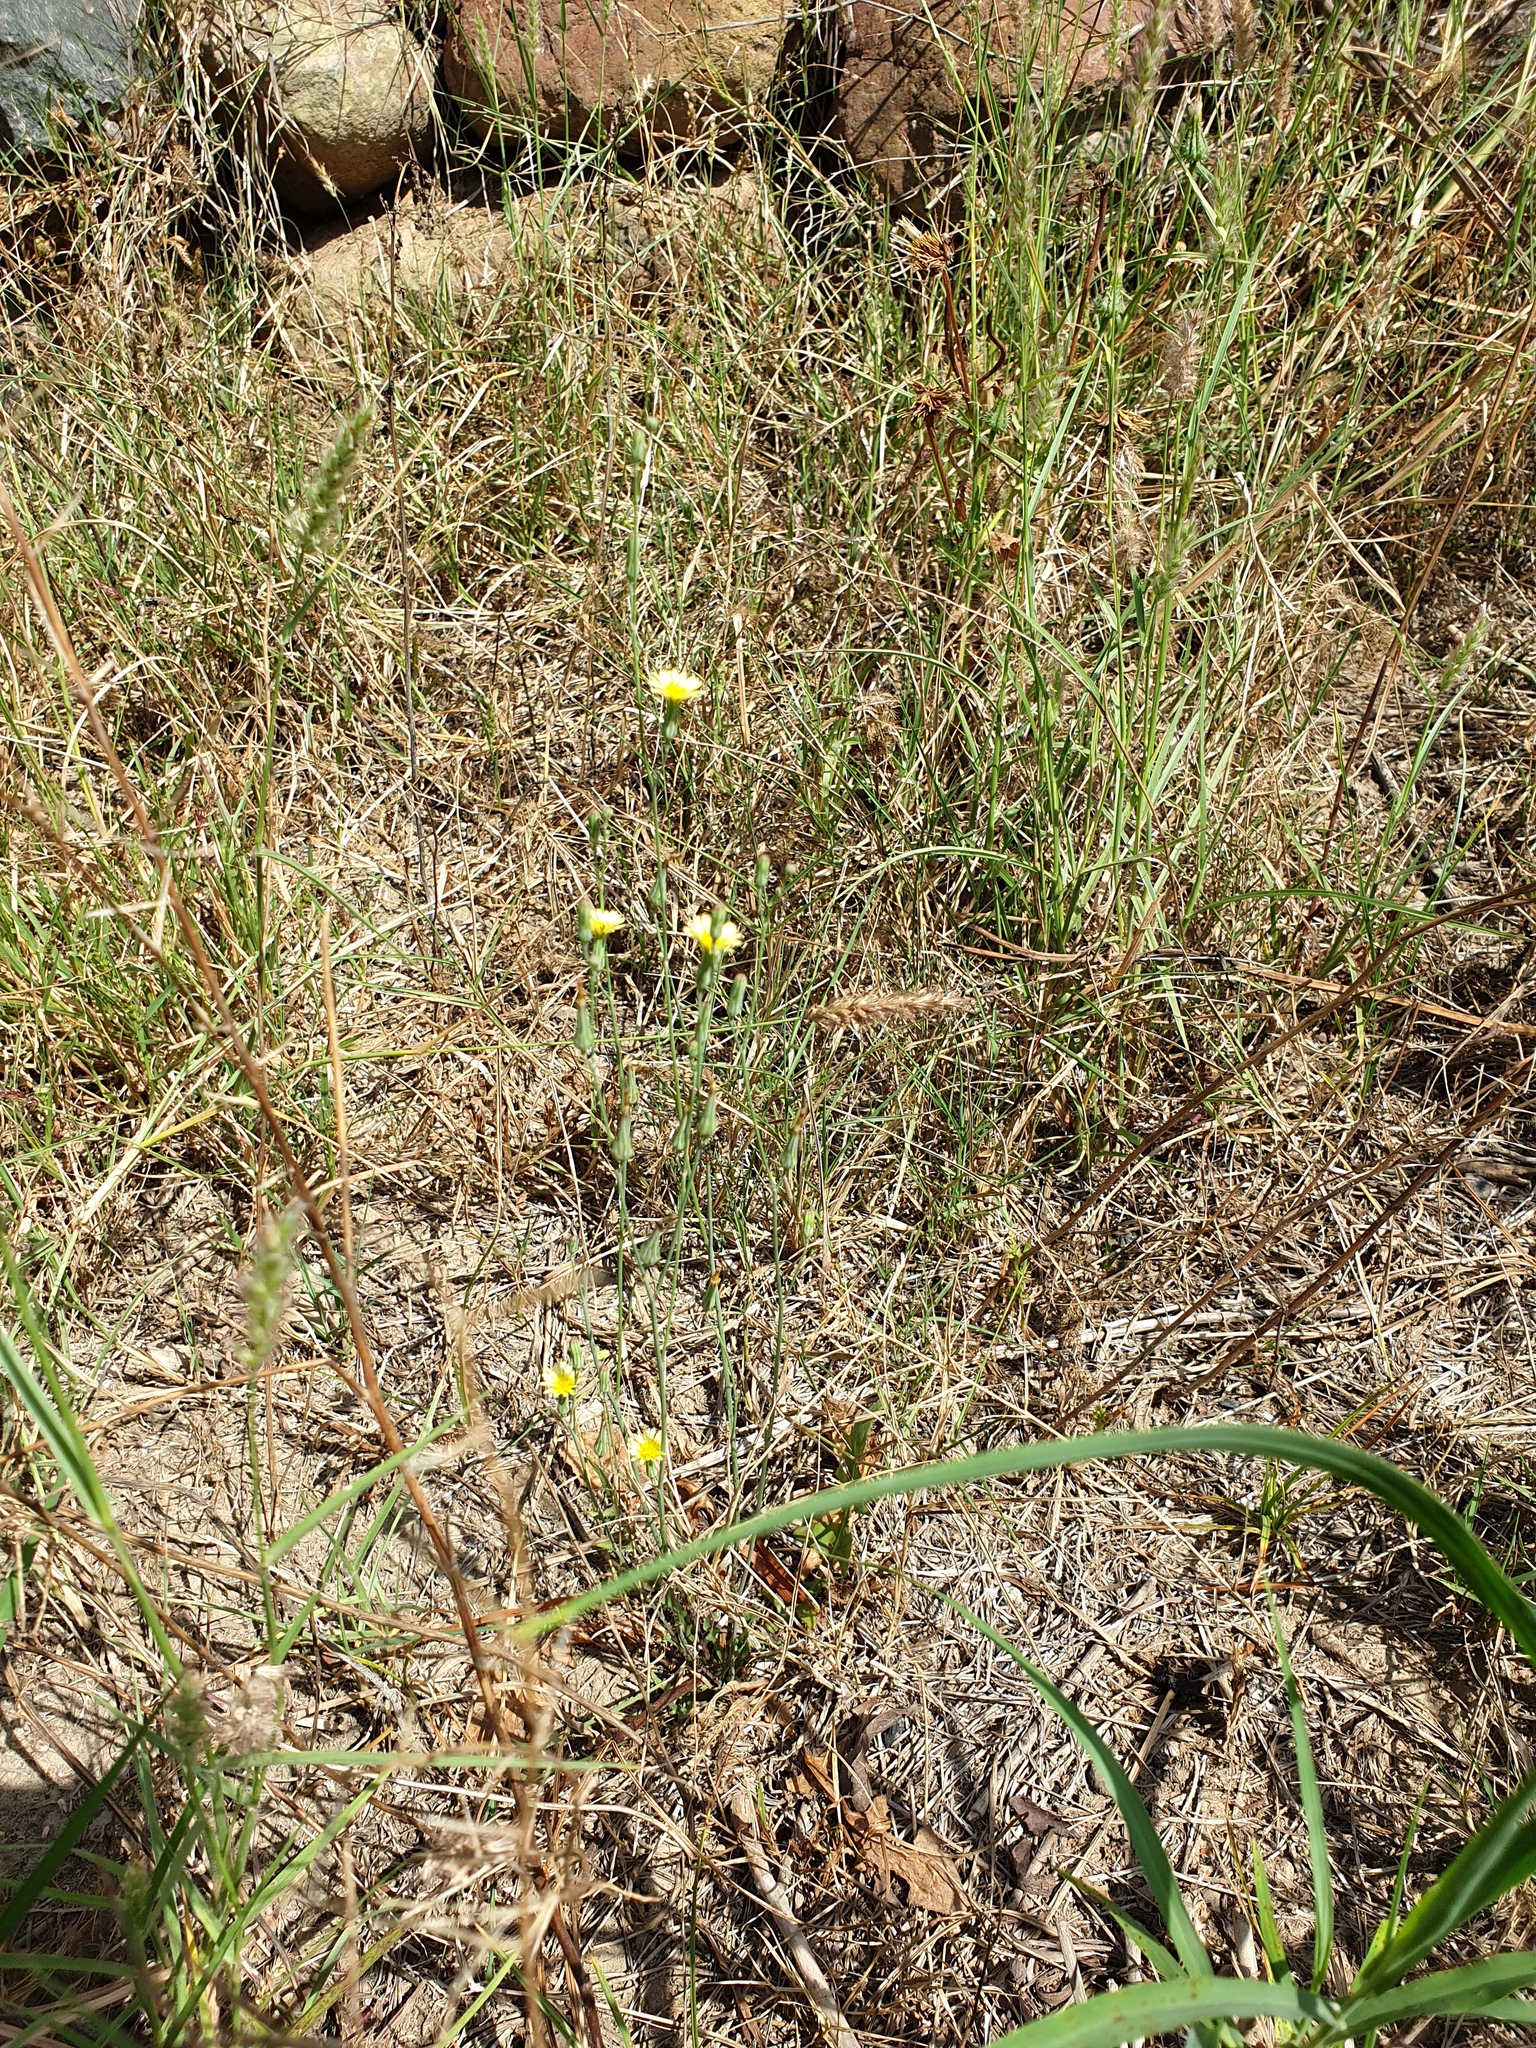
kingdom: Plantae
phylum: Tracheophyta
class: Magnoliopsida
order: Asterales
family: Asteraceae
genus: Launaea
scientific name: Launaea procumbens
